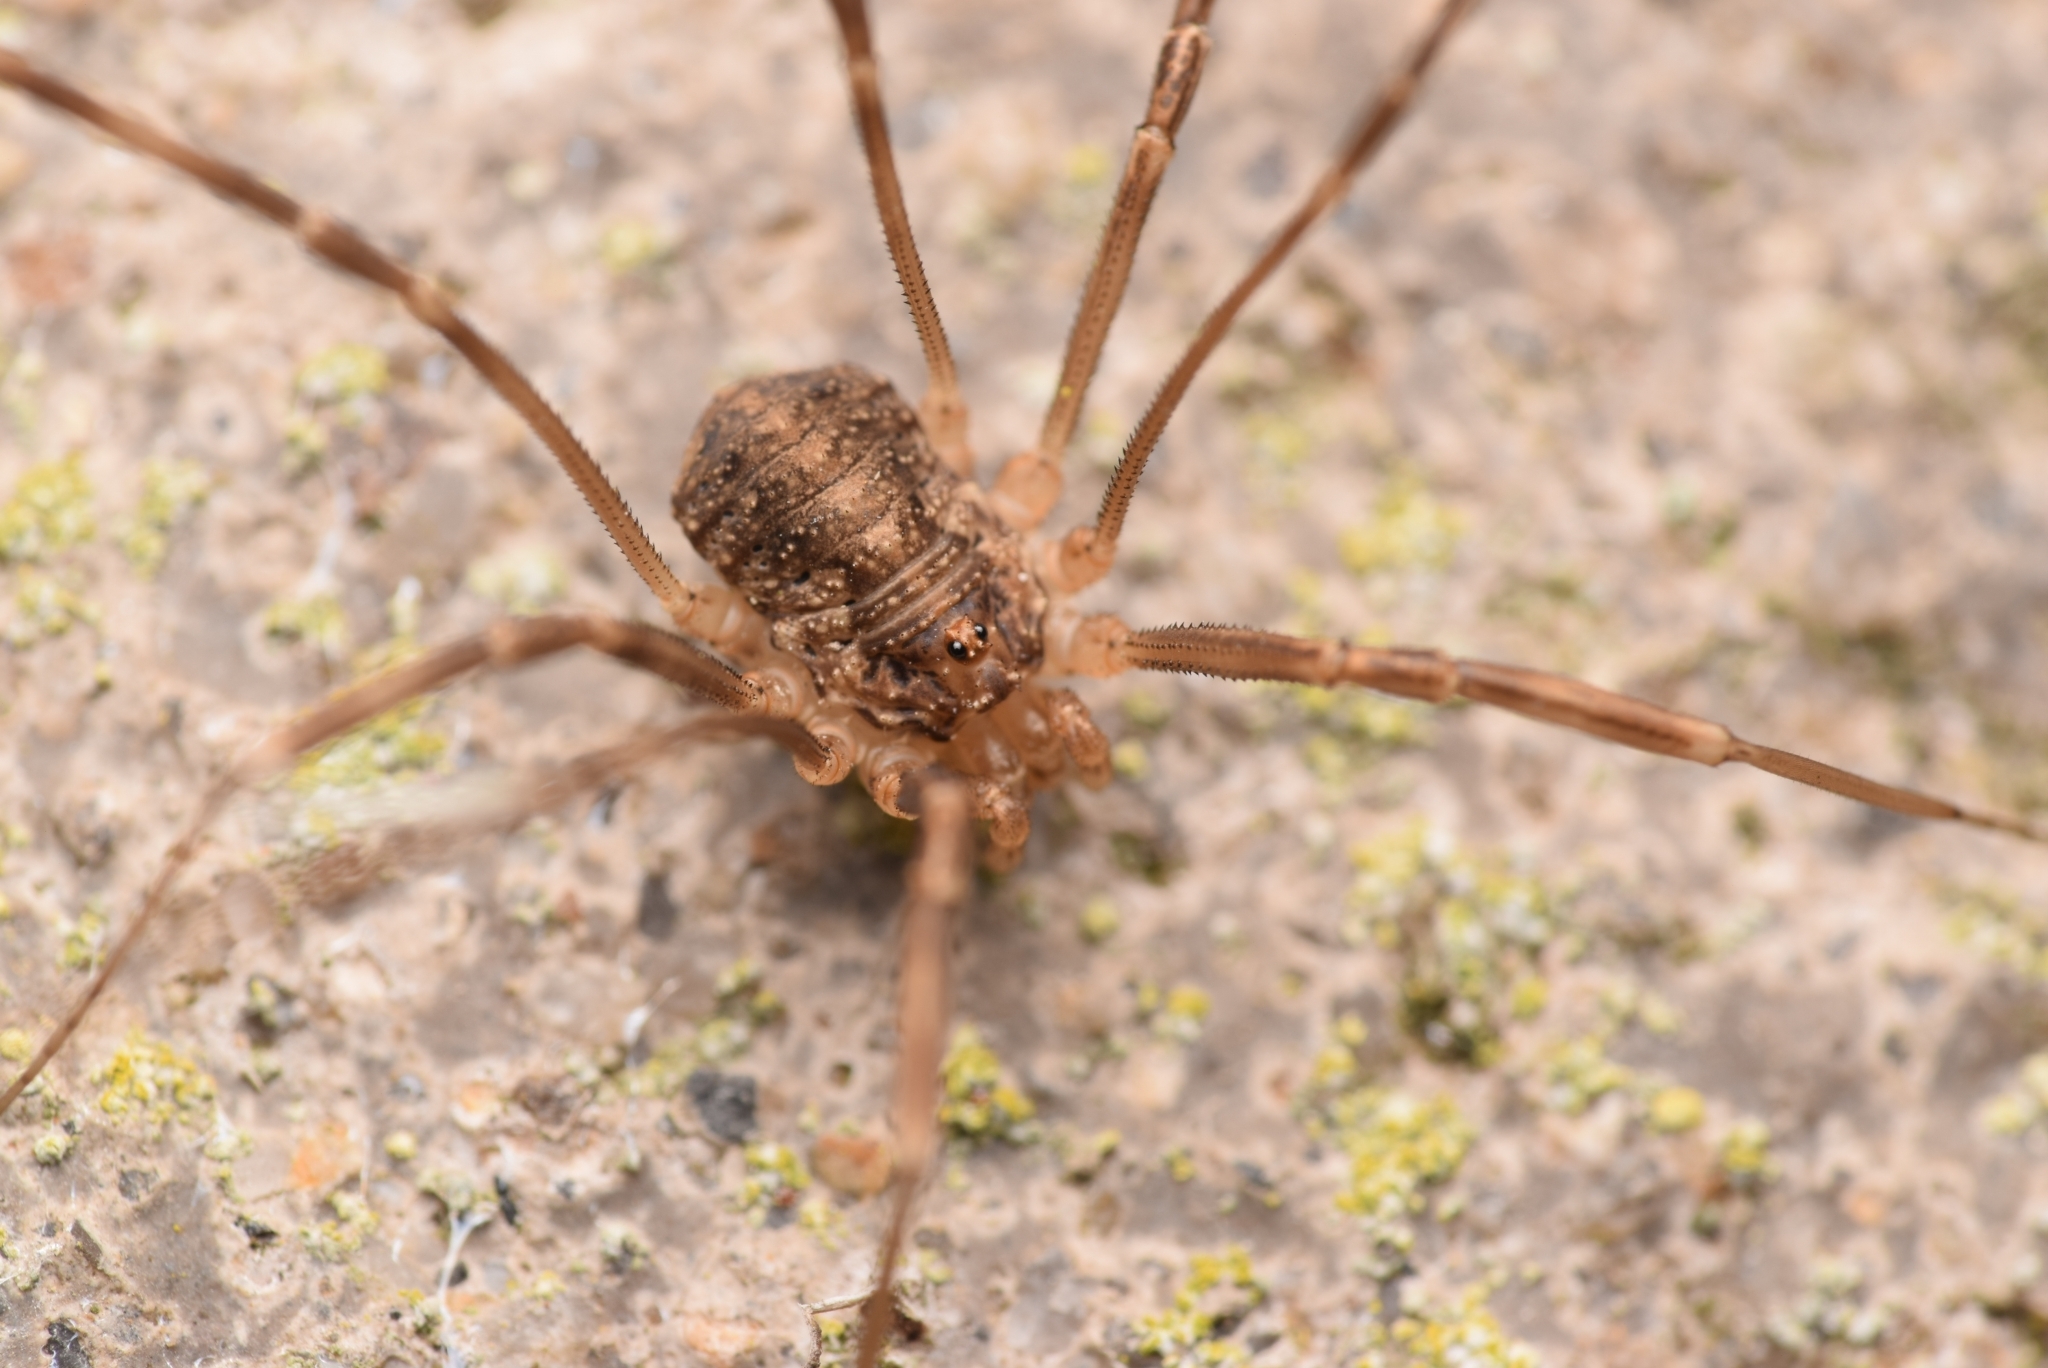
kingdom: Animalia
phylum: Arthropoda
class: Arachnida
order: Opiliones
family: Phalangiidae
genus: Opilio
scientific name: Opilio saxatilis
